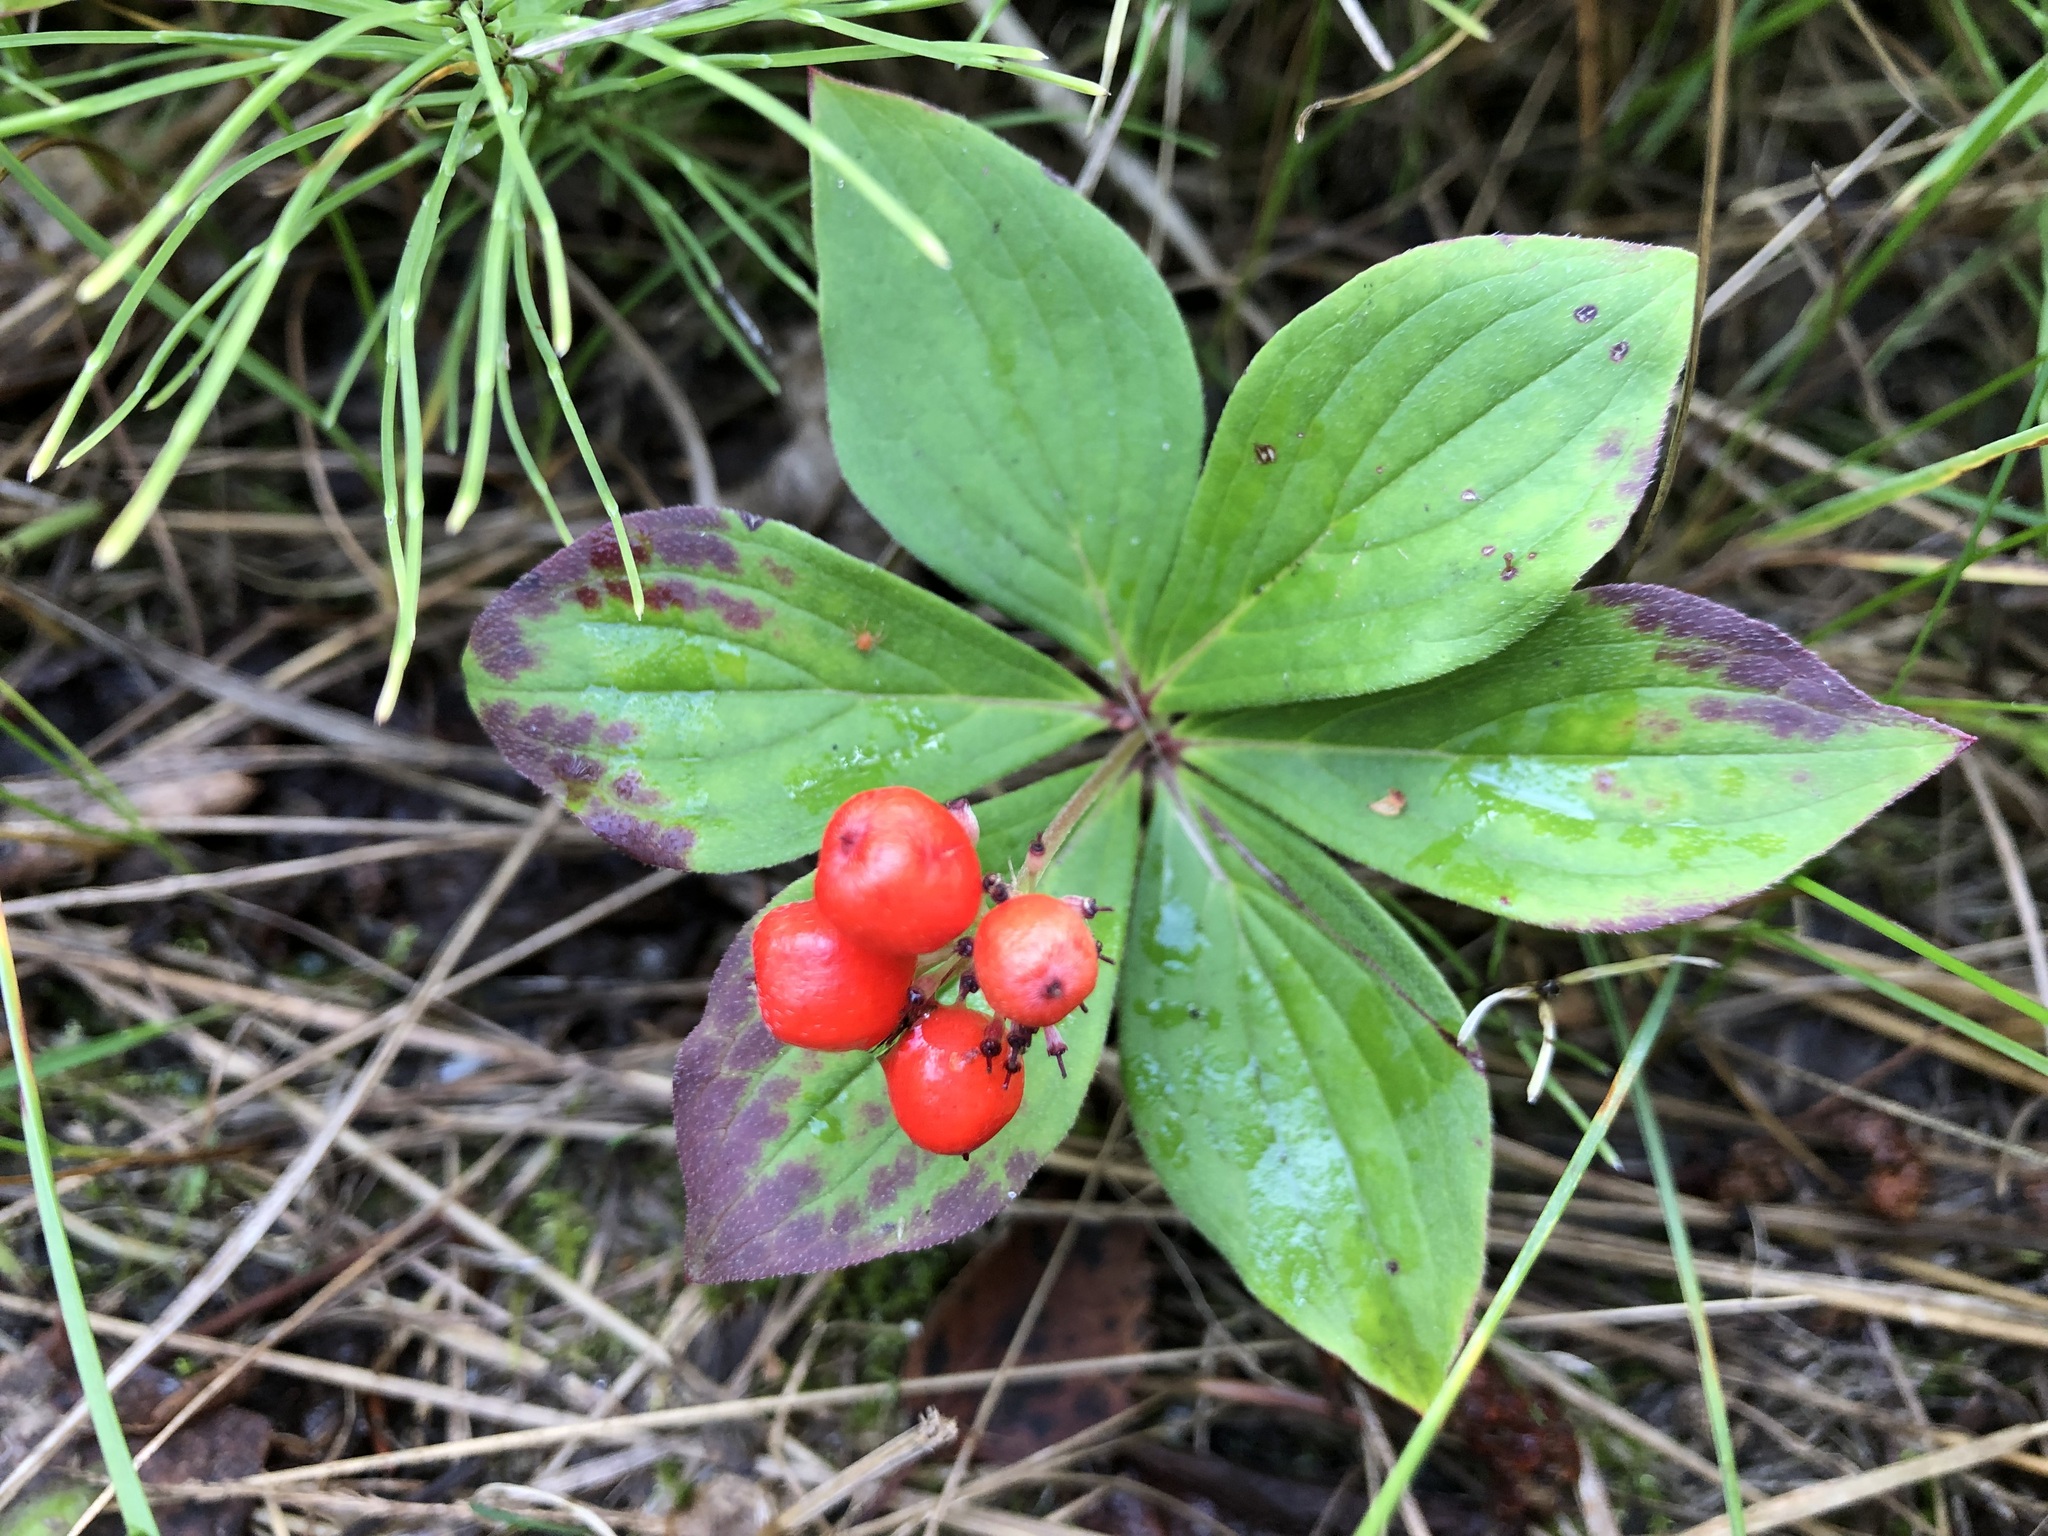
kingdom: Plantae
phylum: Tracheophyta
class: Magnoliopsida
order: Cornales
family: Cornaceae
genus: Cornus
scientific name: Cornus canadensis
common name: Creeping dogwood
